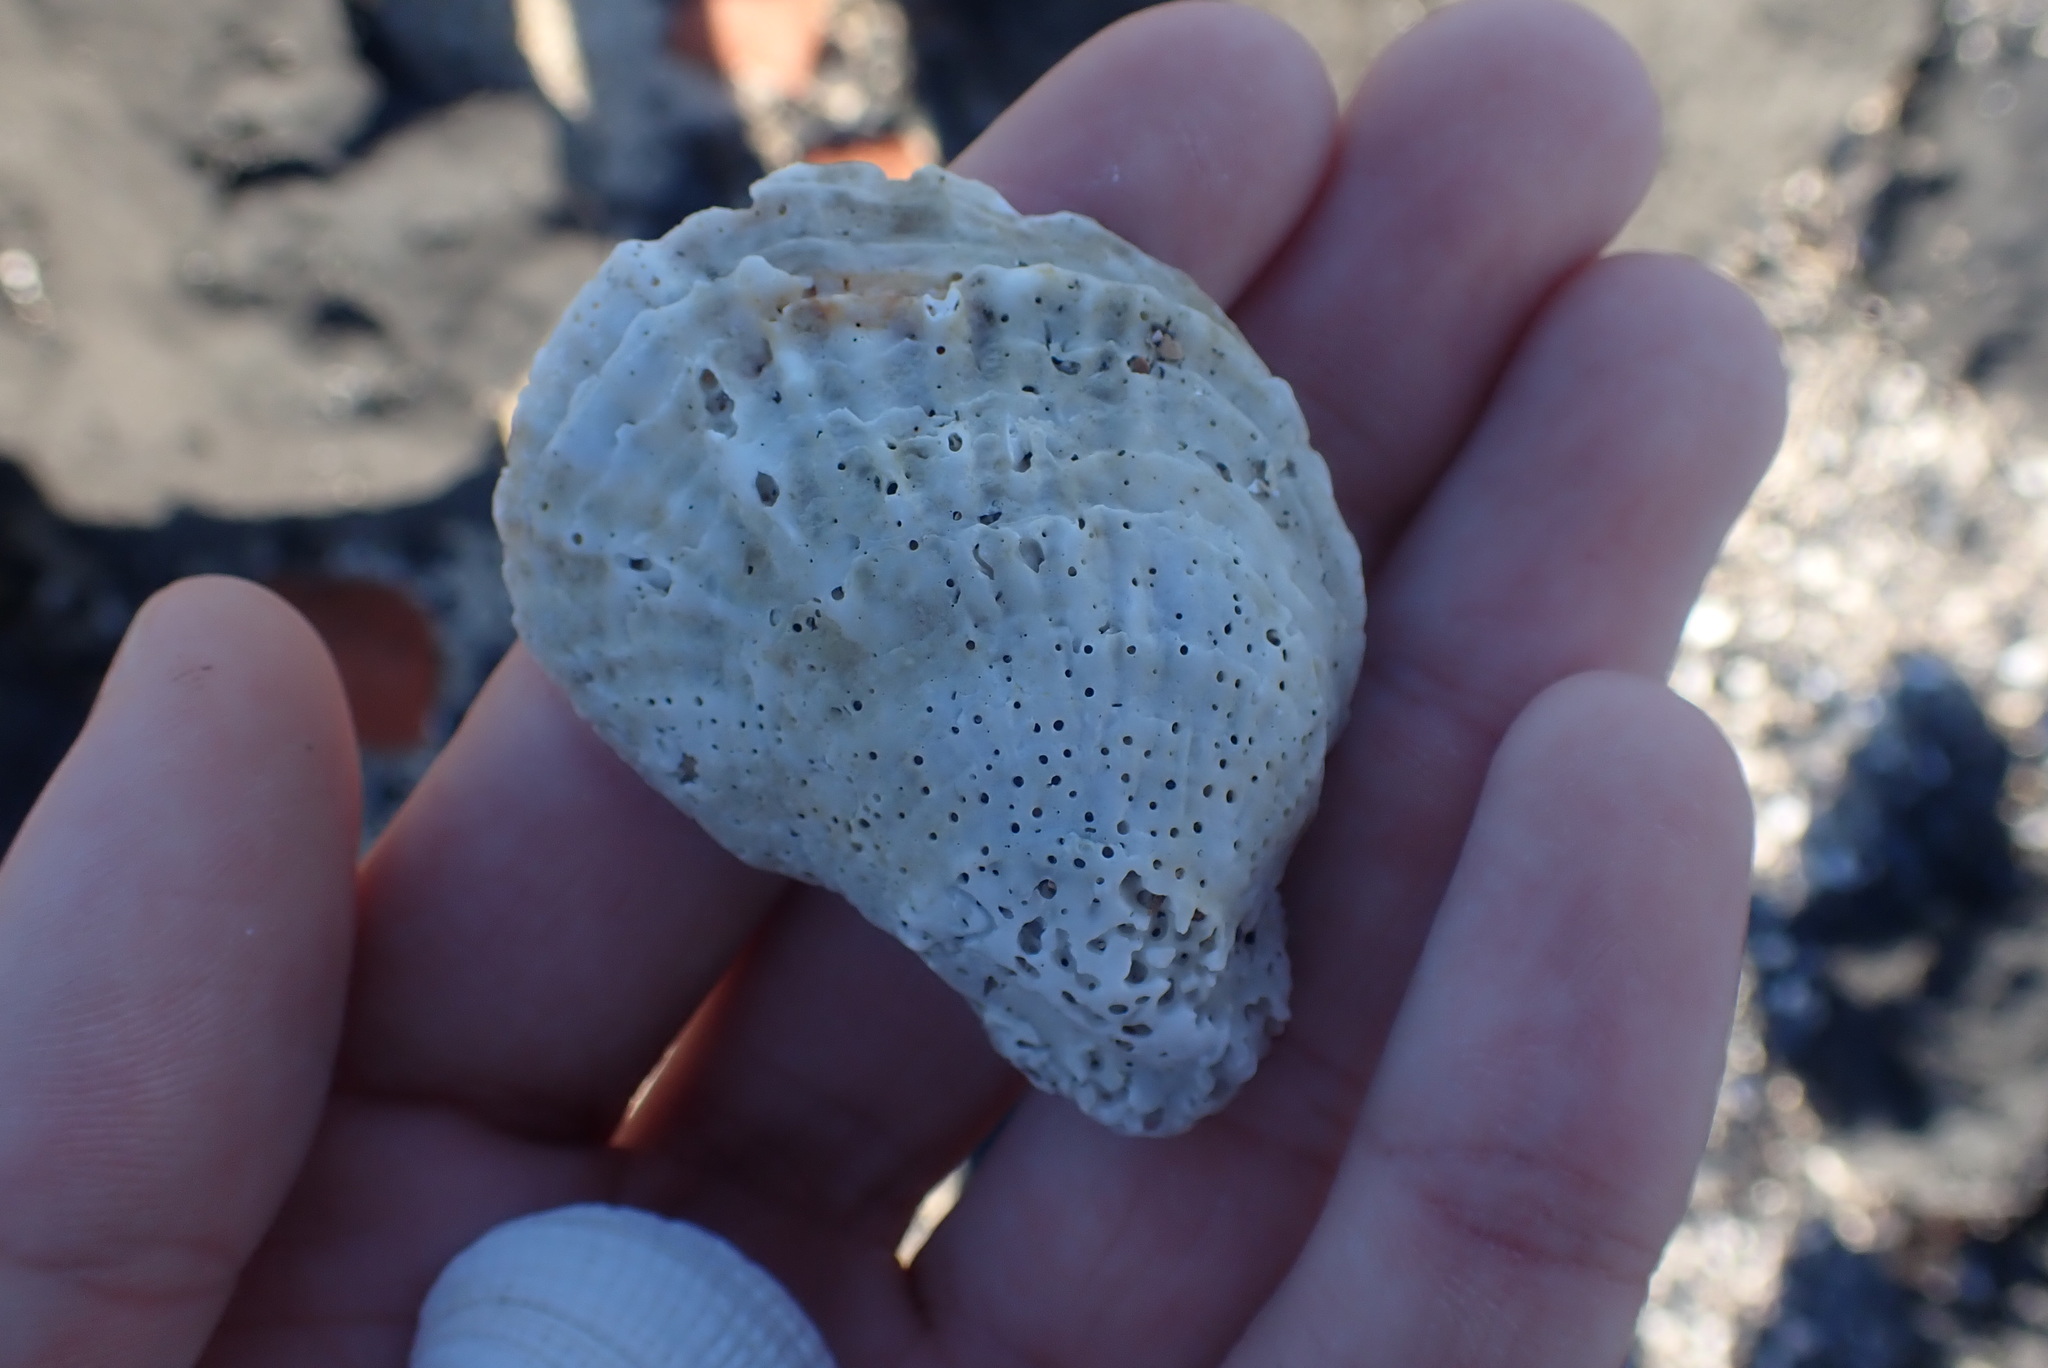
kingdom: Animalia
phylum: Mollusca
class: Bivalvia
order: Ostreida
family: Ostreidae
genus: Ostrea
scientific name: Ostrea chilensis
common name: Chilean oyster
